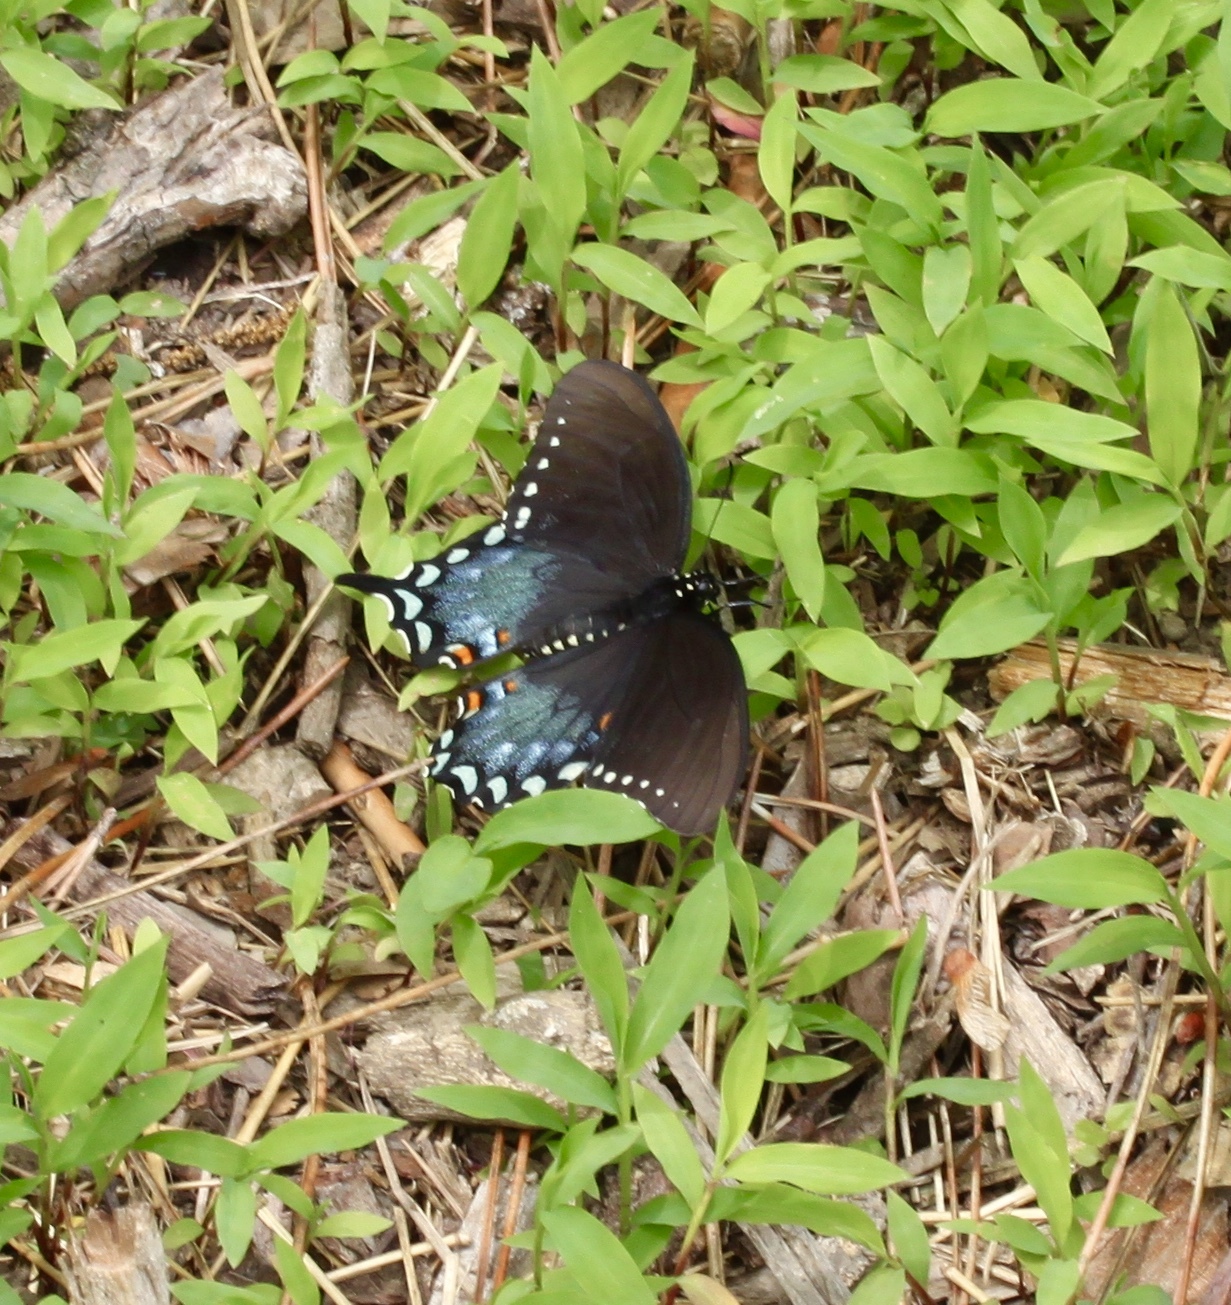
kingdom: Animalia
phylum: Arthropoda
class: Insecta
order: Lepidoptera
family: Papilionidae
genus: Papilio
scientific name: Papilio troilus
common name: Spicebush swallowtail
